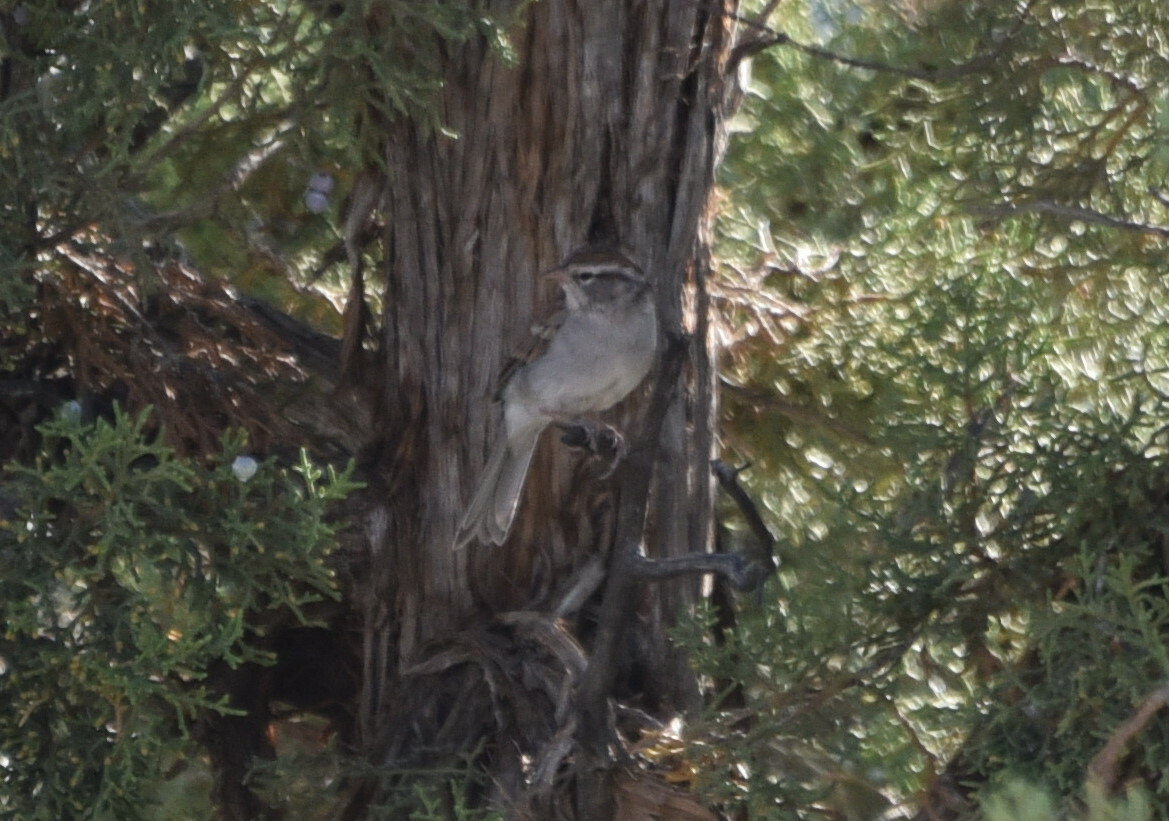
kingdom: Animalia
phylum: Chordata
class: Aves
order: Passeriformes
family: Passerellidae
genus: Spizella
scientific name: Spizella passerina
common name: Chipping sparrow
